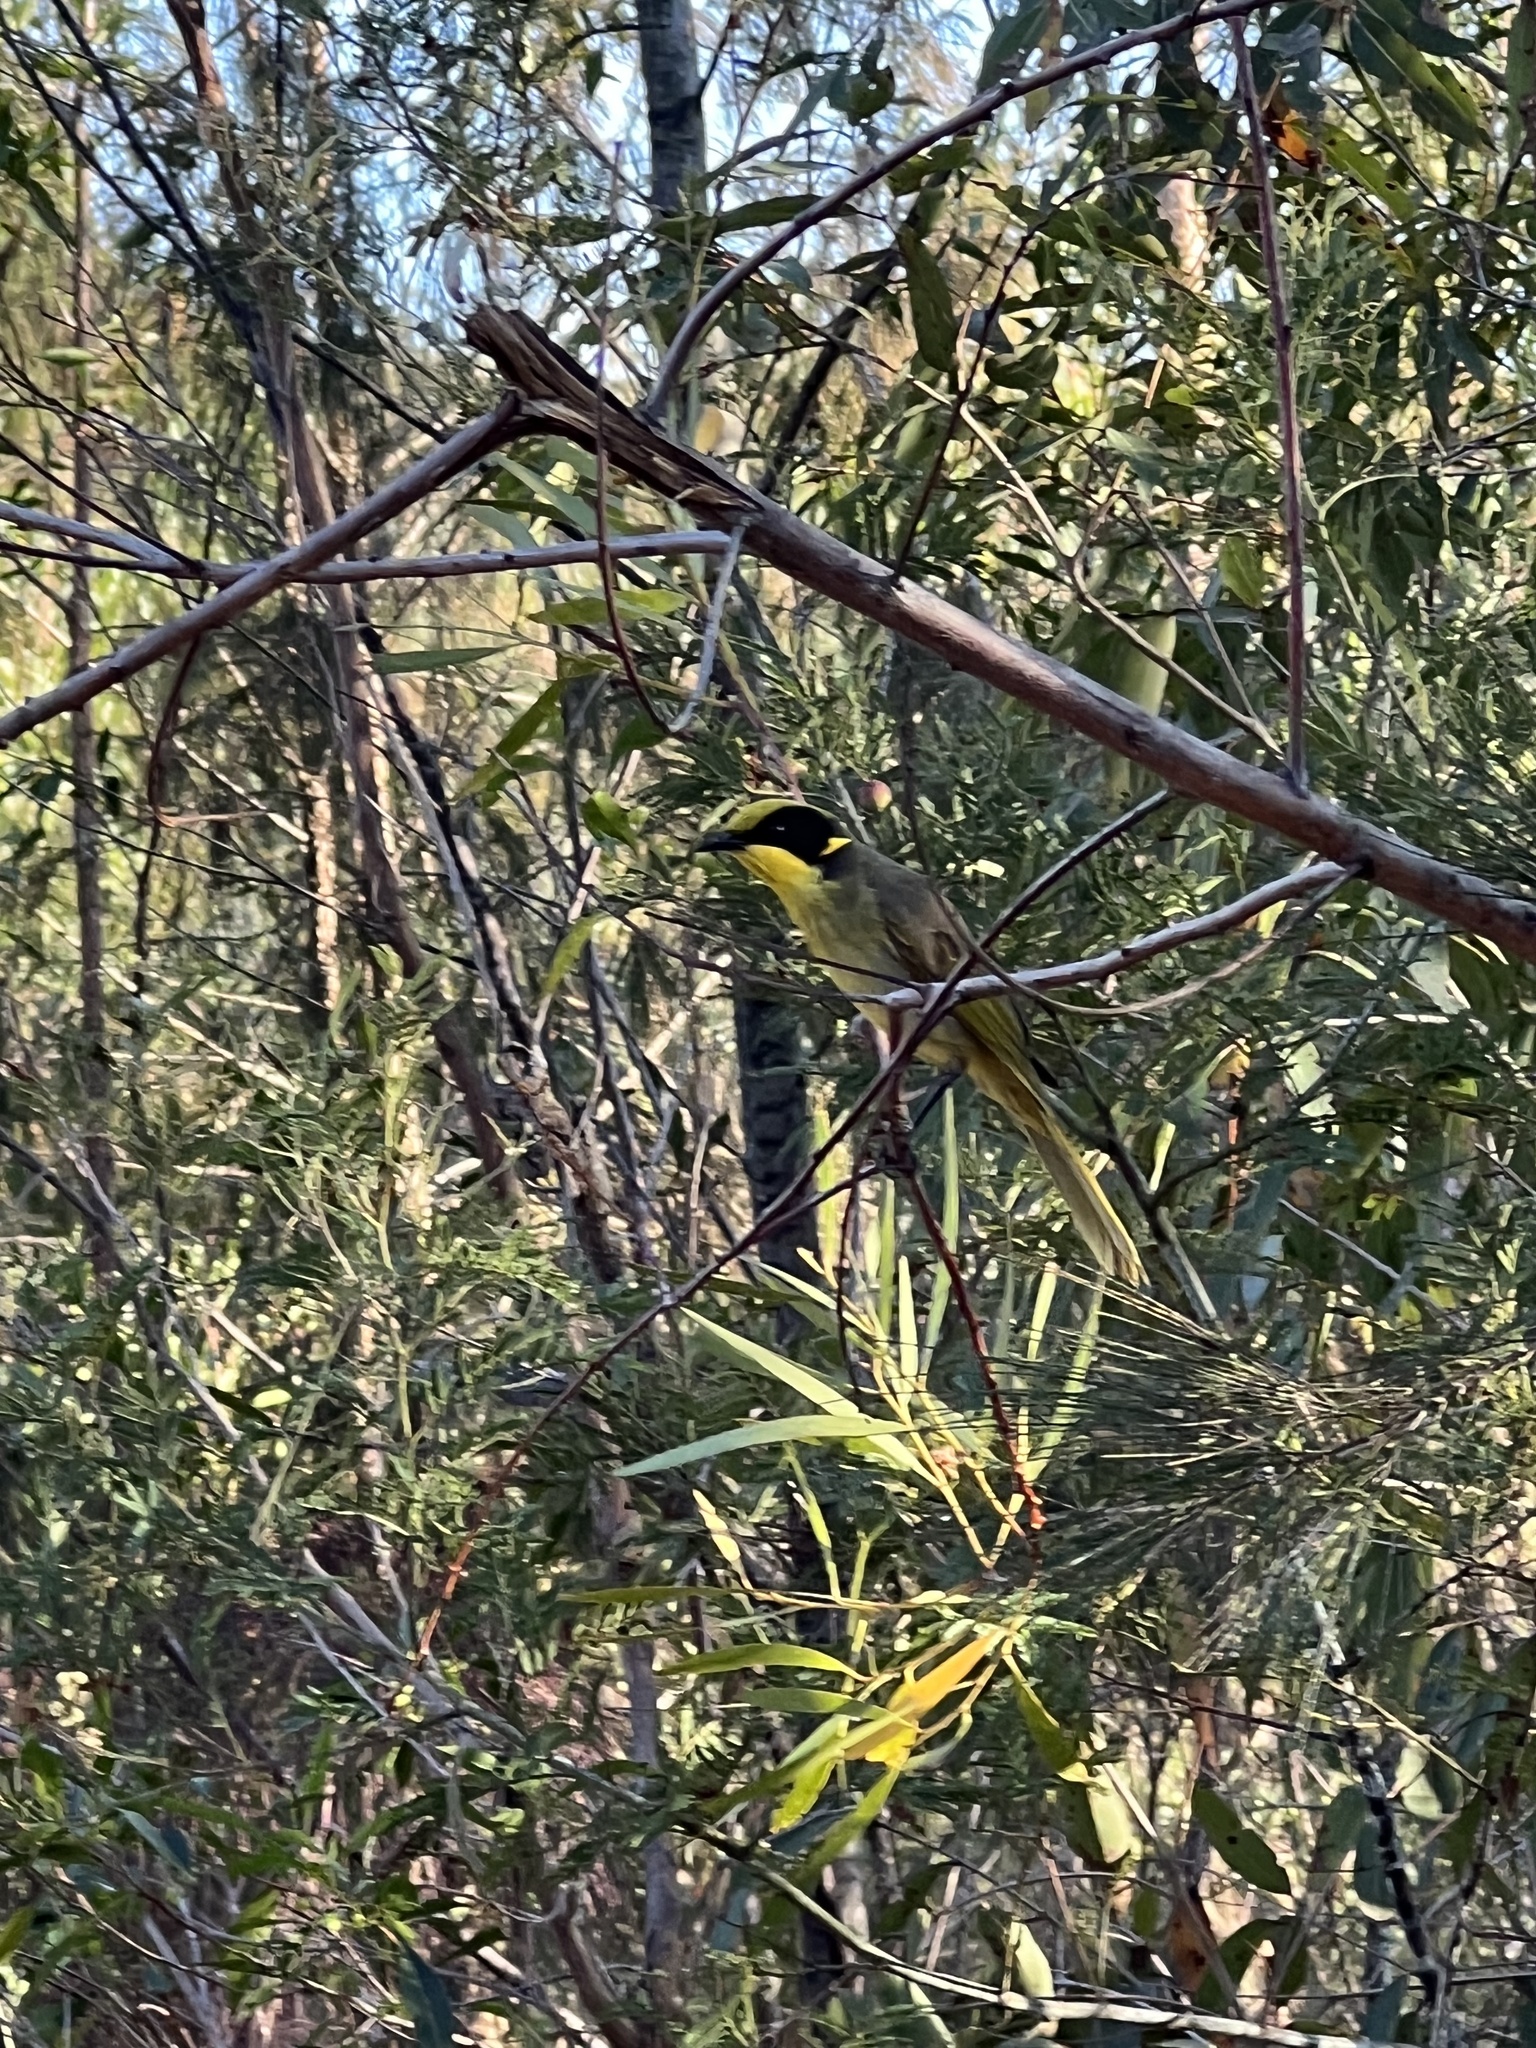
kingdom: Animalia
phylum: Chordata
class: Aves
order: Passeriformes
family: Meliphagidae
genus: Lichenostomus
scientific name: Lichenostomus melanops
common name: Yellow-tufted honeyeater
